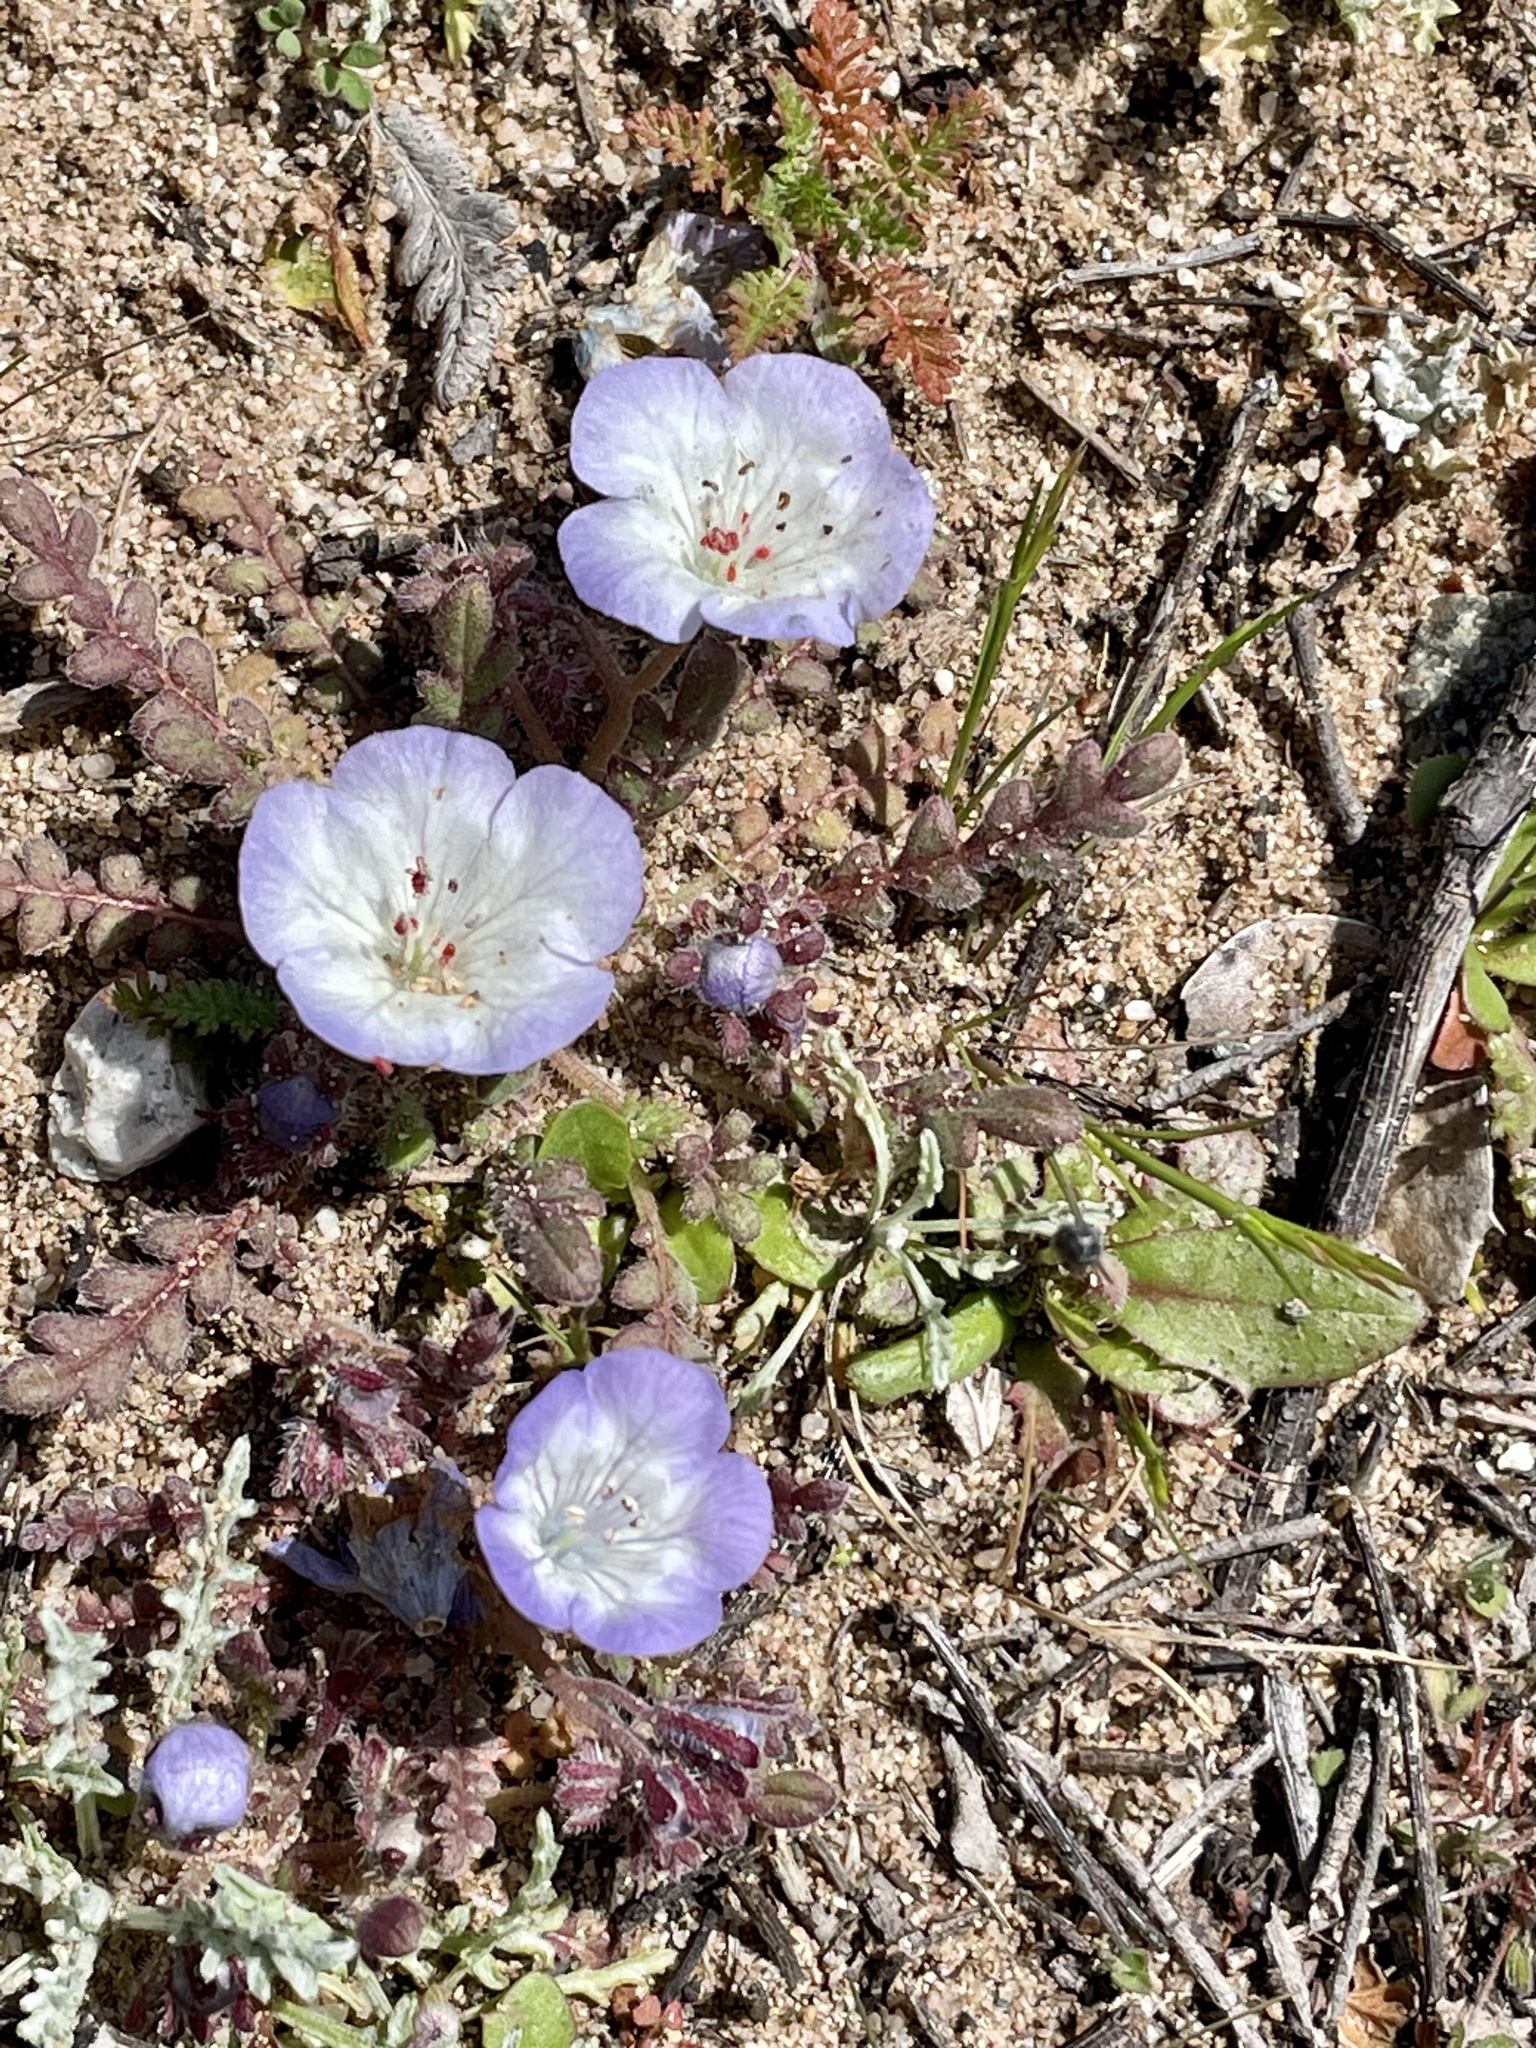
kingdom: Plantae
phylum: Tracheophyta
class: Magnoliopsida
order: Boraginales
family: Hydrophyllaceae
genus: Phacelia
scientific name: Phacelia douglasii
